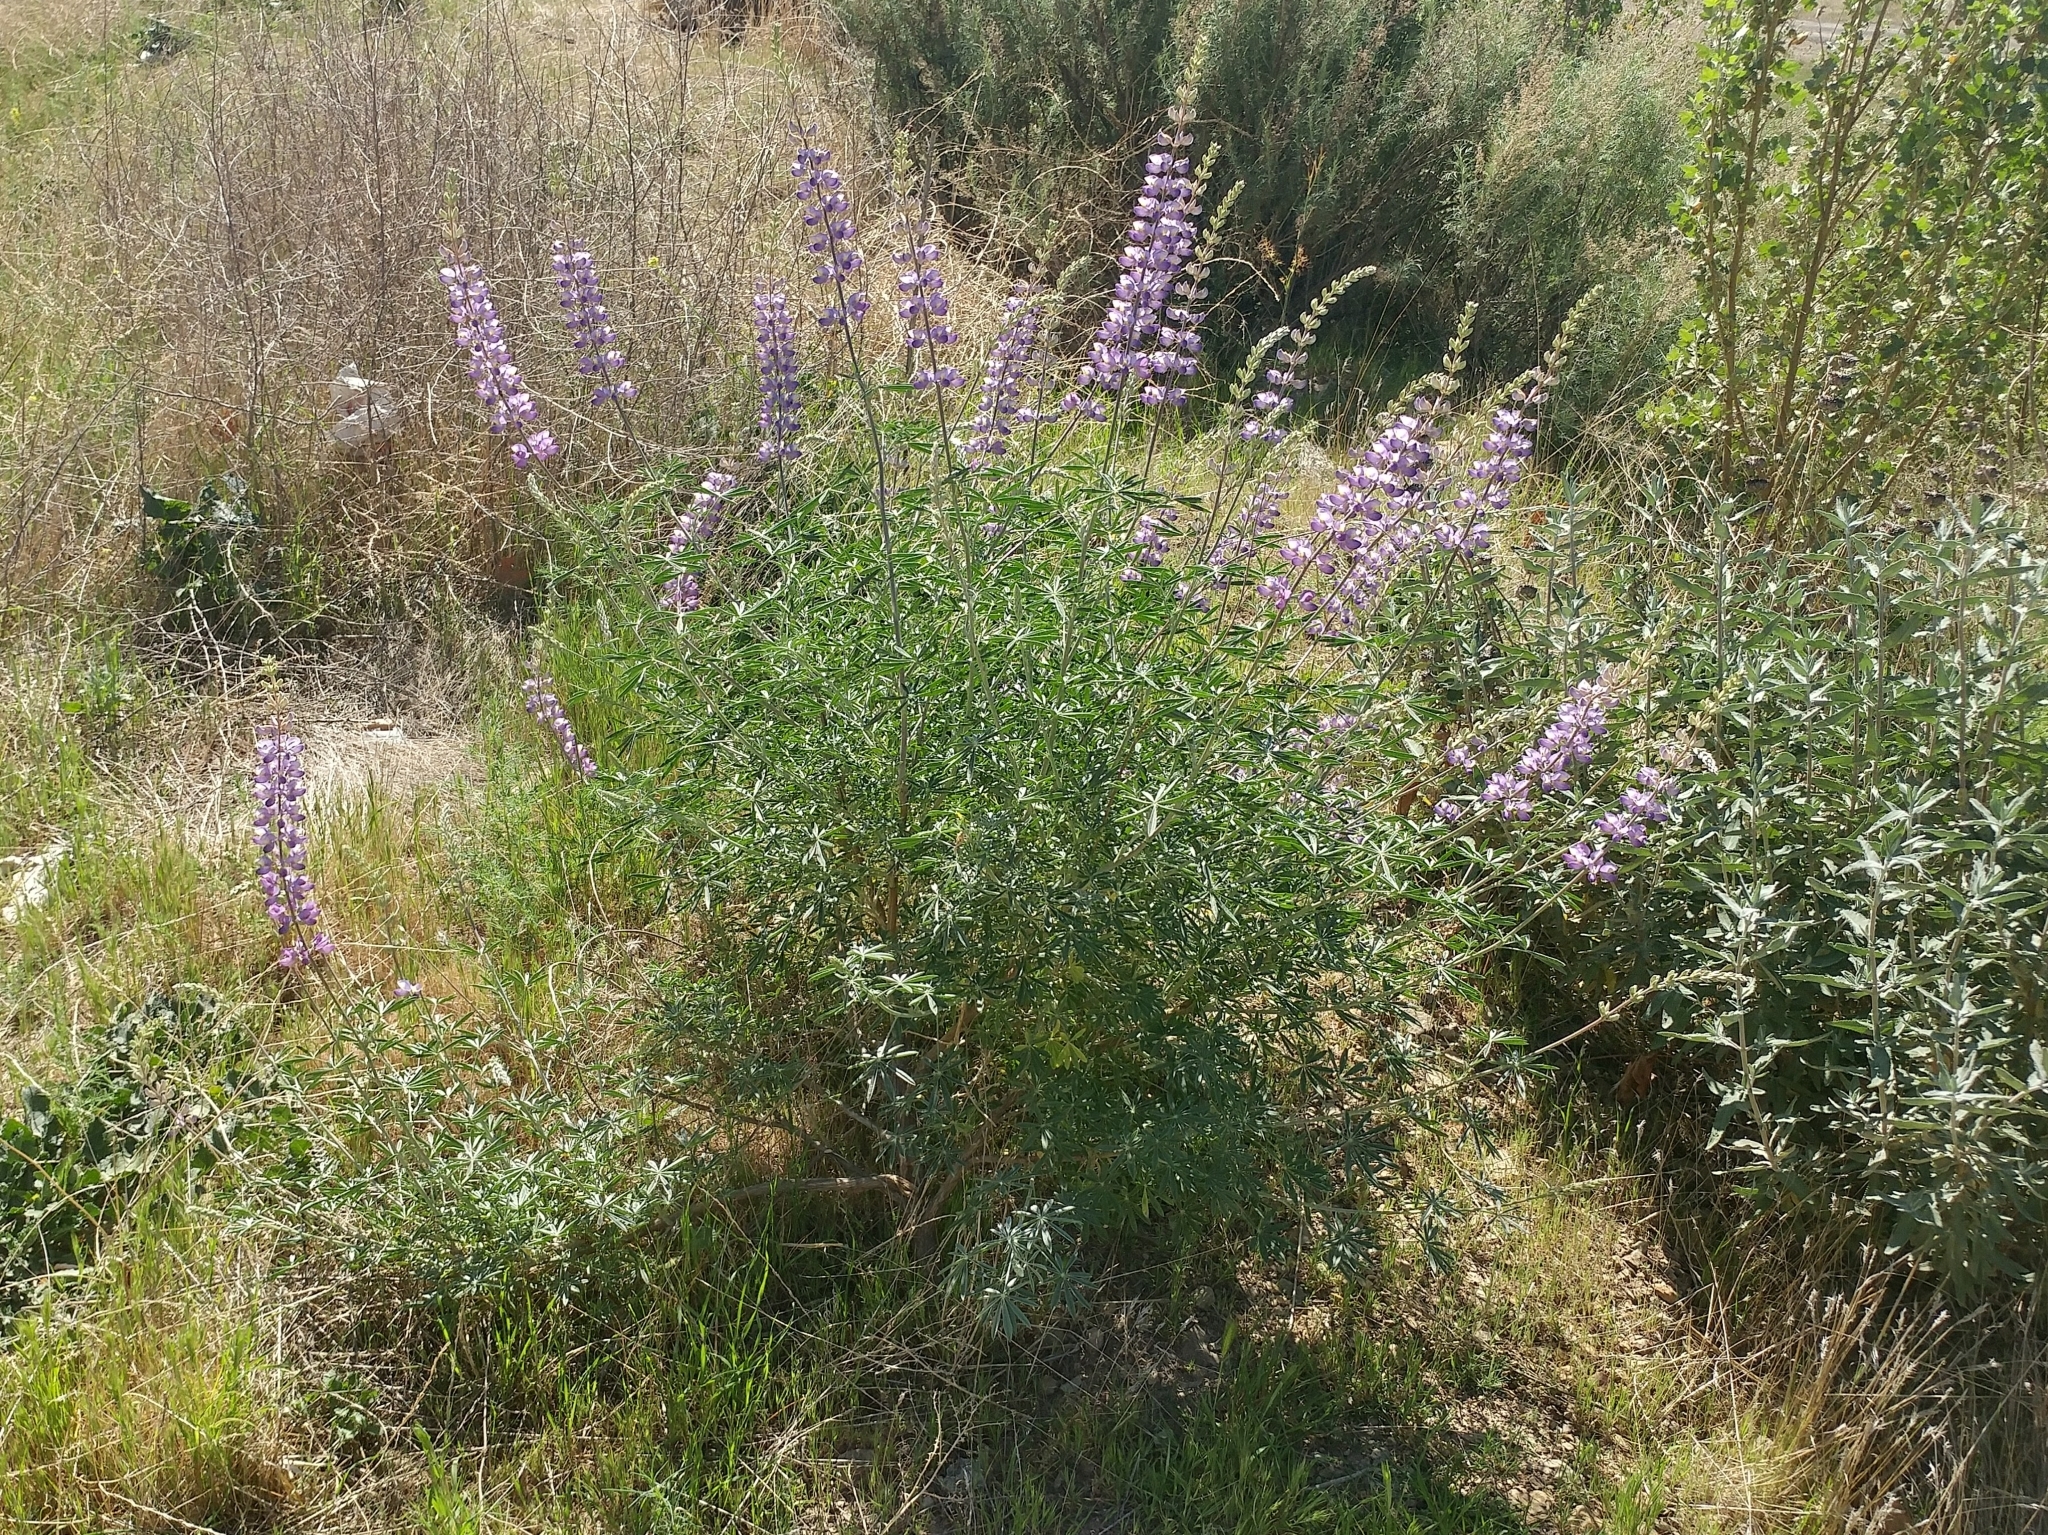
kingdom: Plantae
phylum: Tracheophyta
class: Magnoliopsida
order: Fabales
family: Fabaceae
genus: Lupinus
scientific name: Lupinus albifrons
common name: Foothill lupine
